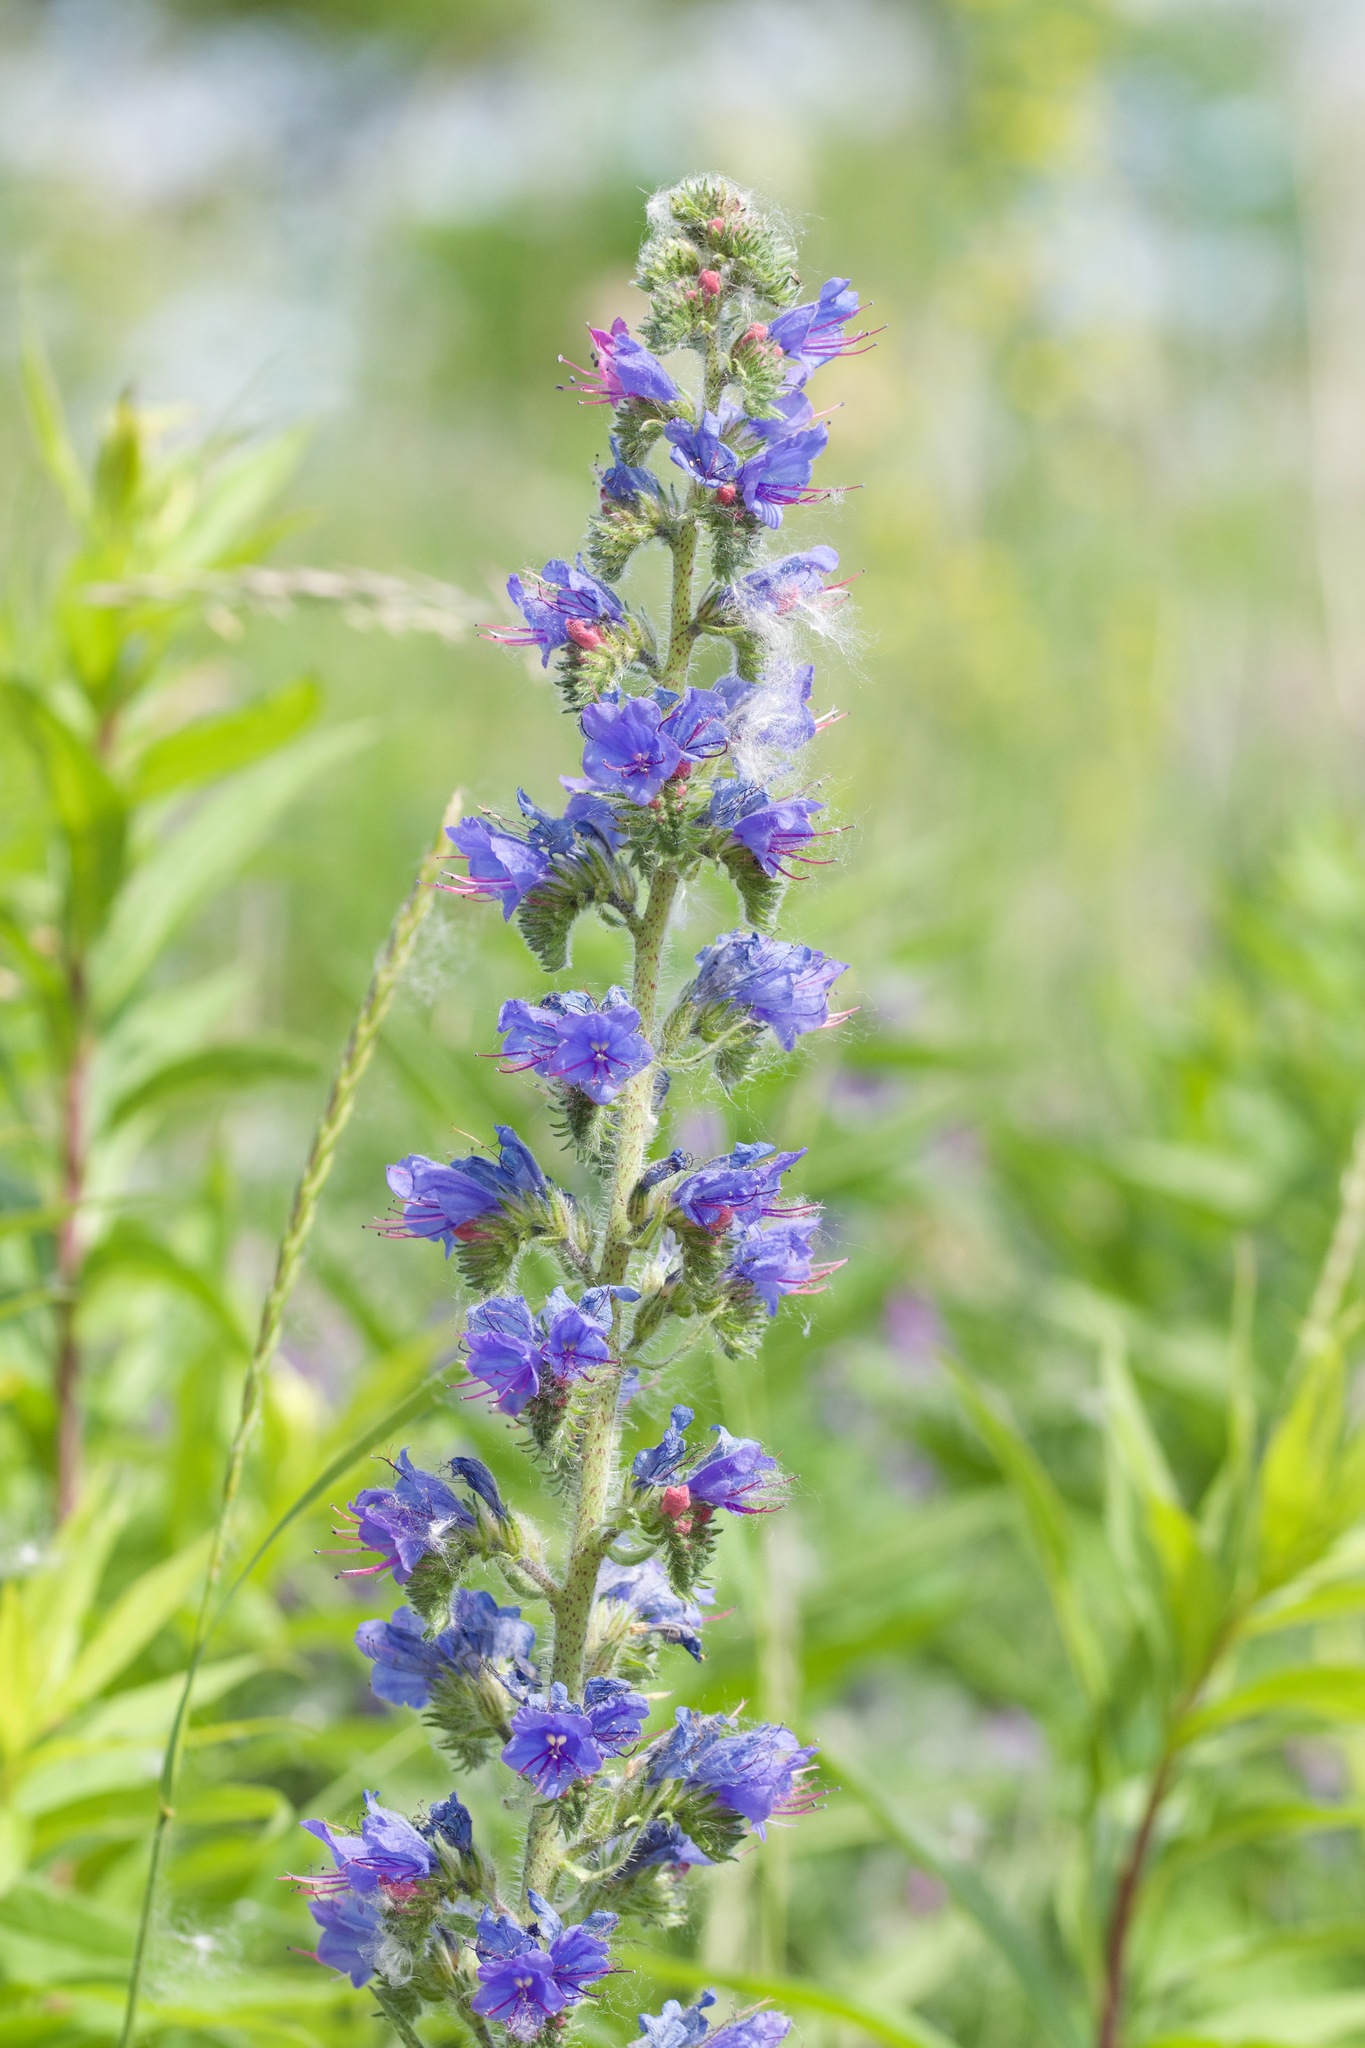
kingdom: Plantae
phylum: Tracheophyta
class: Magnoliopsida
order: Boraginales
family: Boraginaceae
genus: Echium
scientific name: Echium vulgare
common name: Common viper's bugloss
